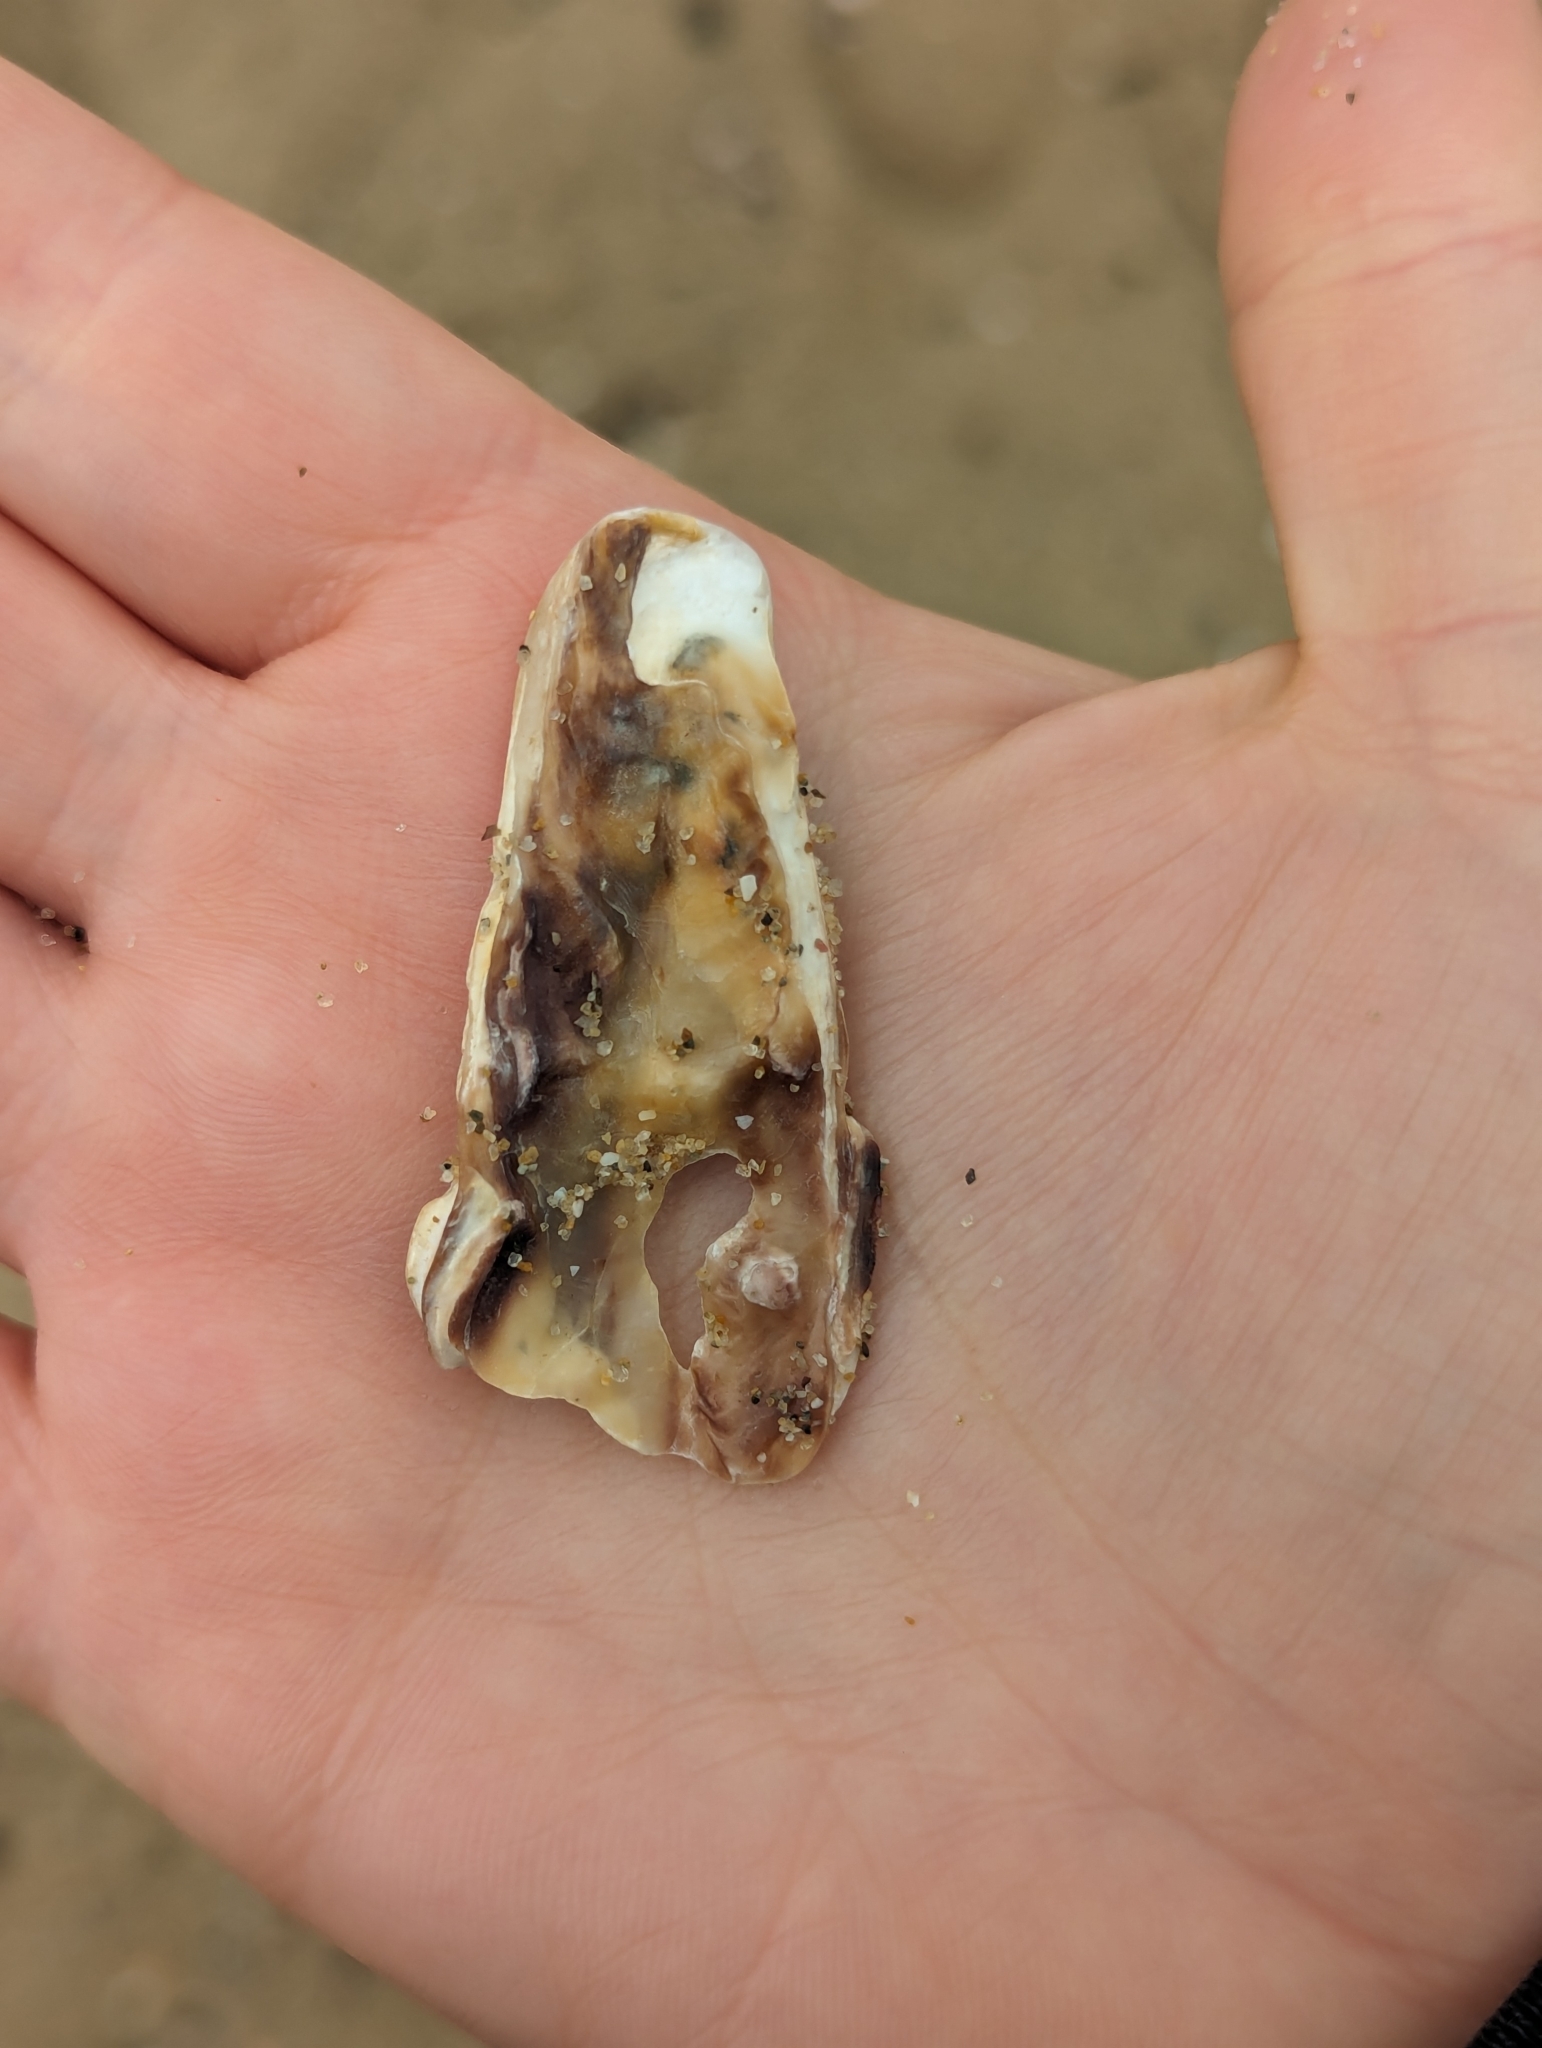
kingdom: Animalia
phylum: Mollusca
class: Bivalvia
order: Ostreida
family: Ostreidae
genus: Magallana
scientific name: Magallana gigas
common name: Pacific oyster
